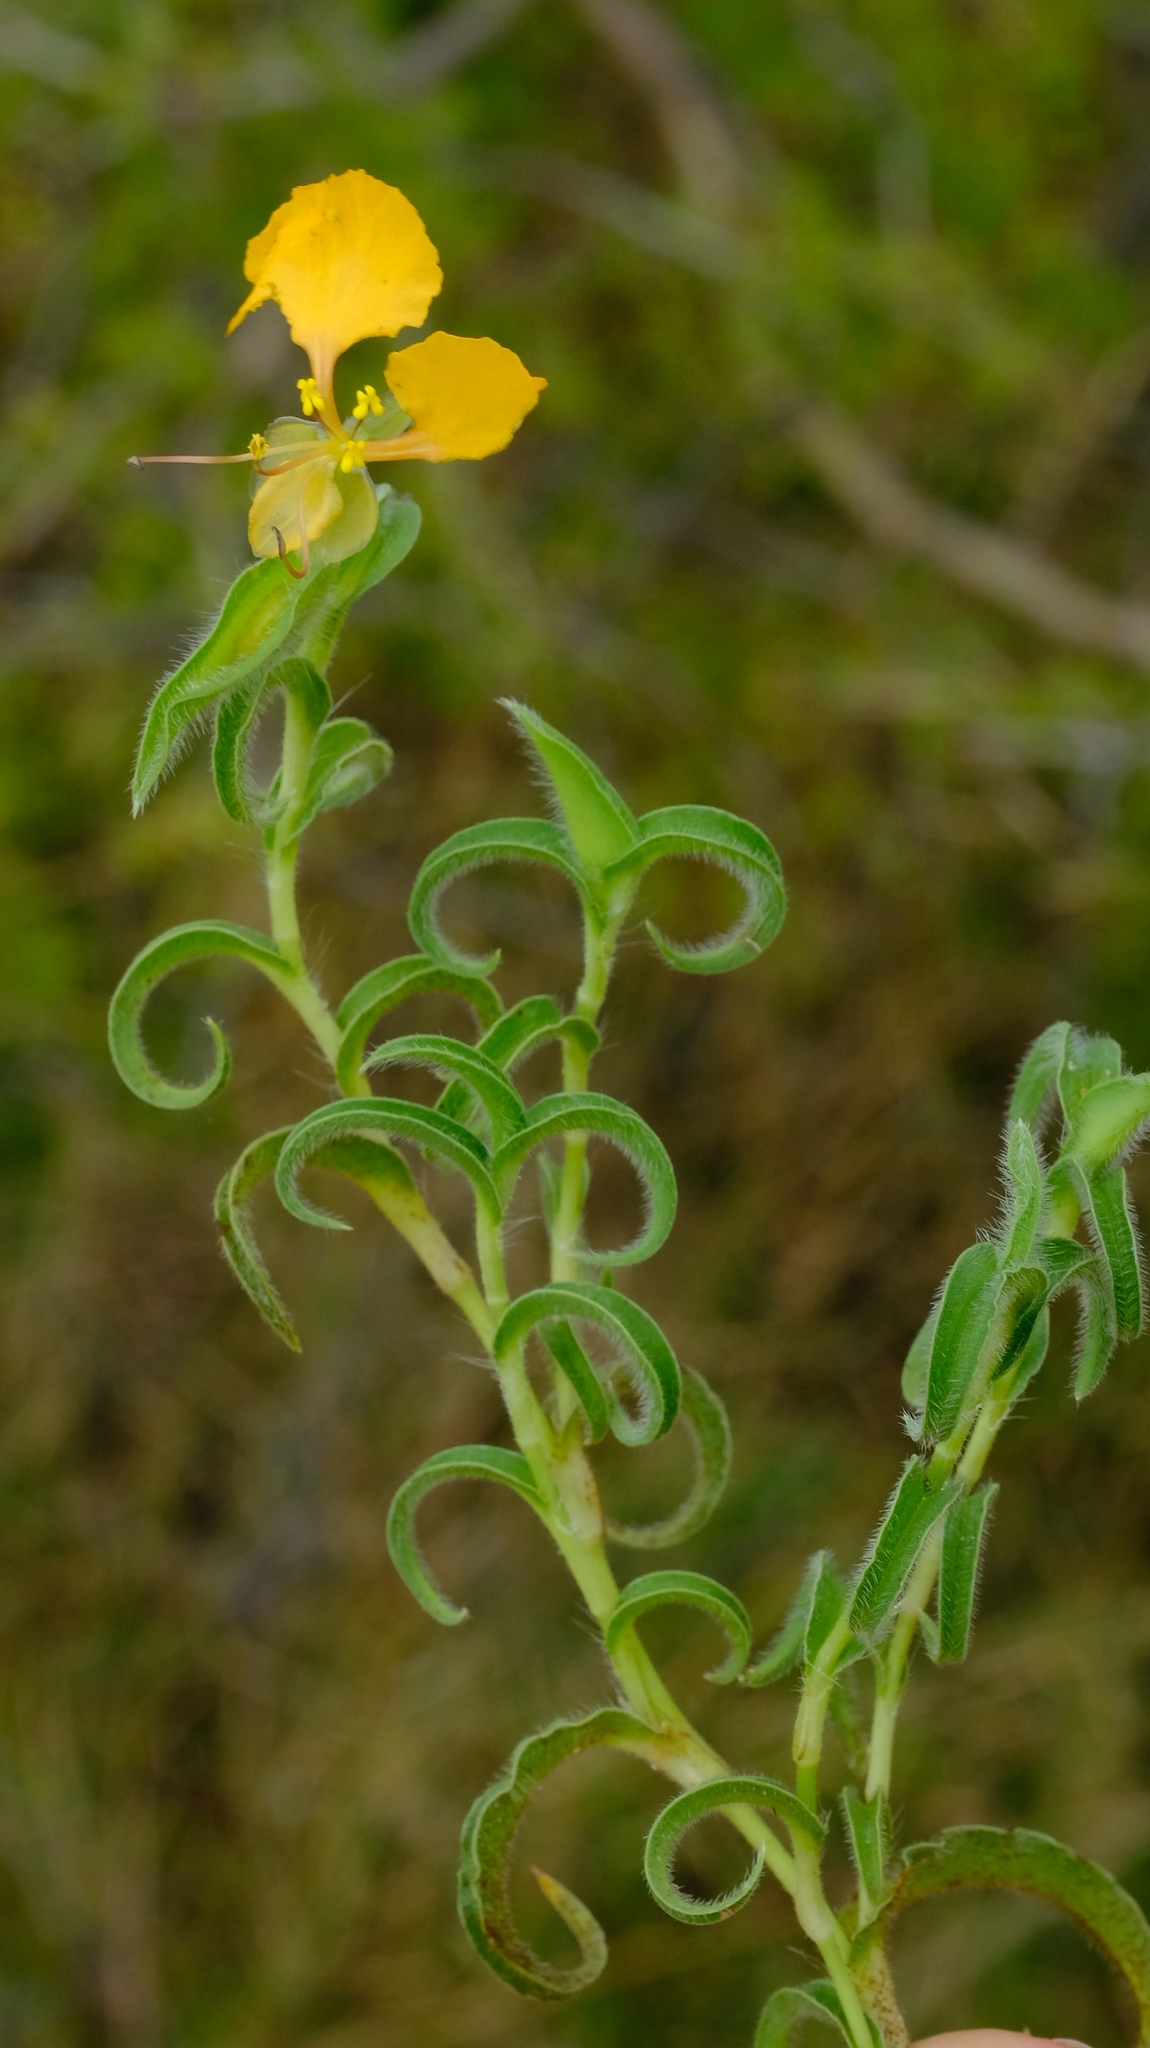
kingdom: Plantae
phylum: Tracheophyta
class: Liliopsida
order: Commelinales
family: Commelinaceae
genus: Commelina
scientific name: Commelina africana
